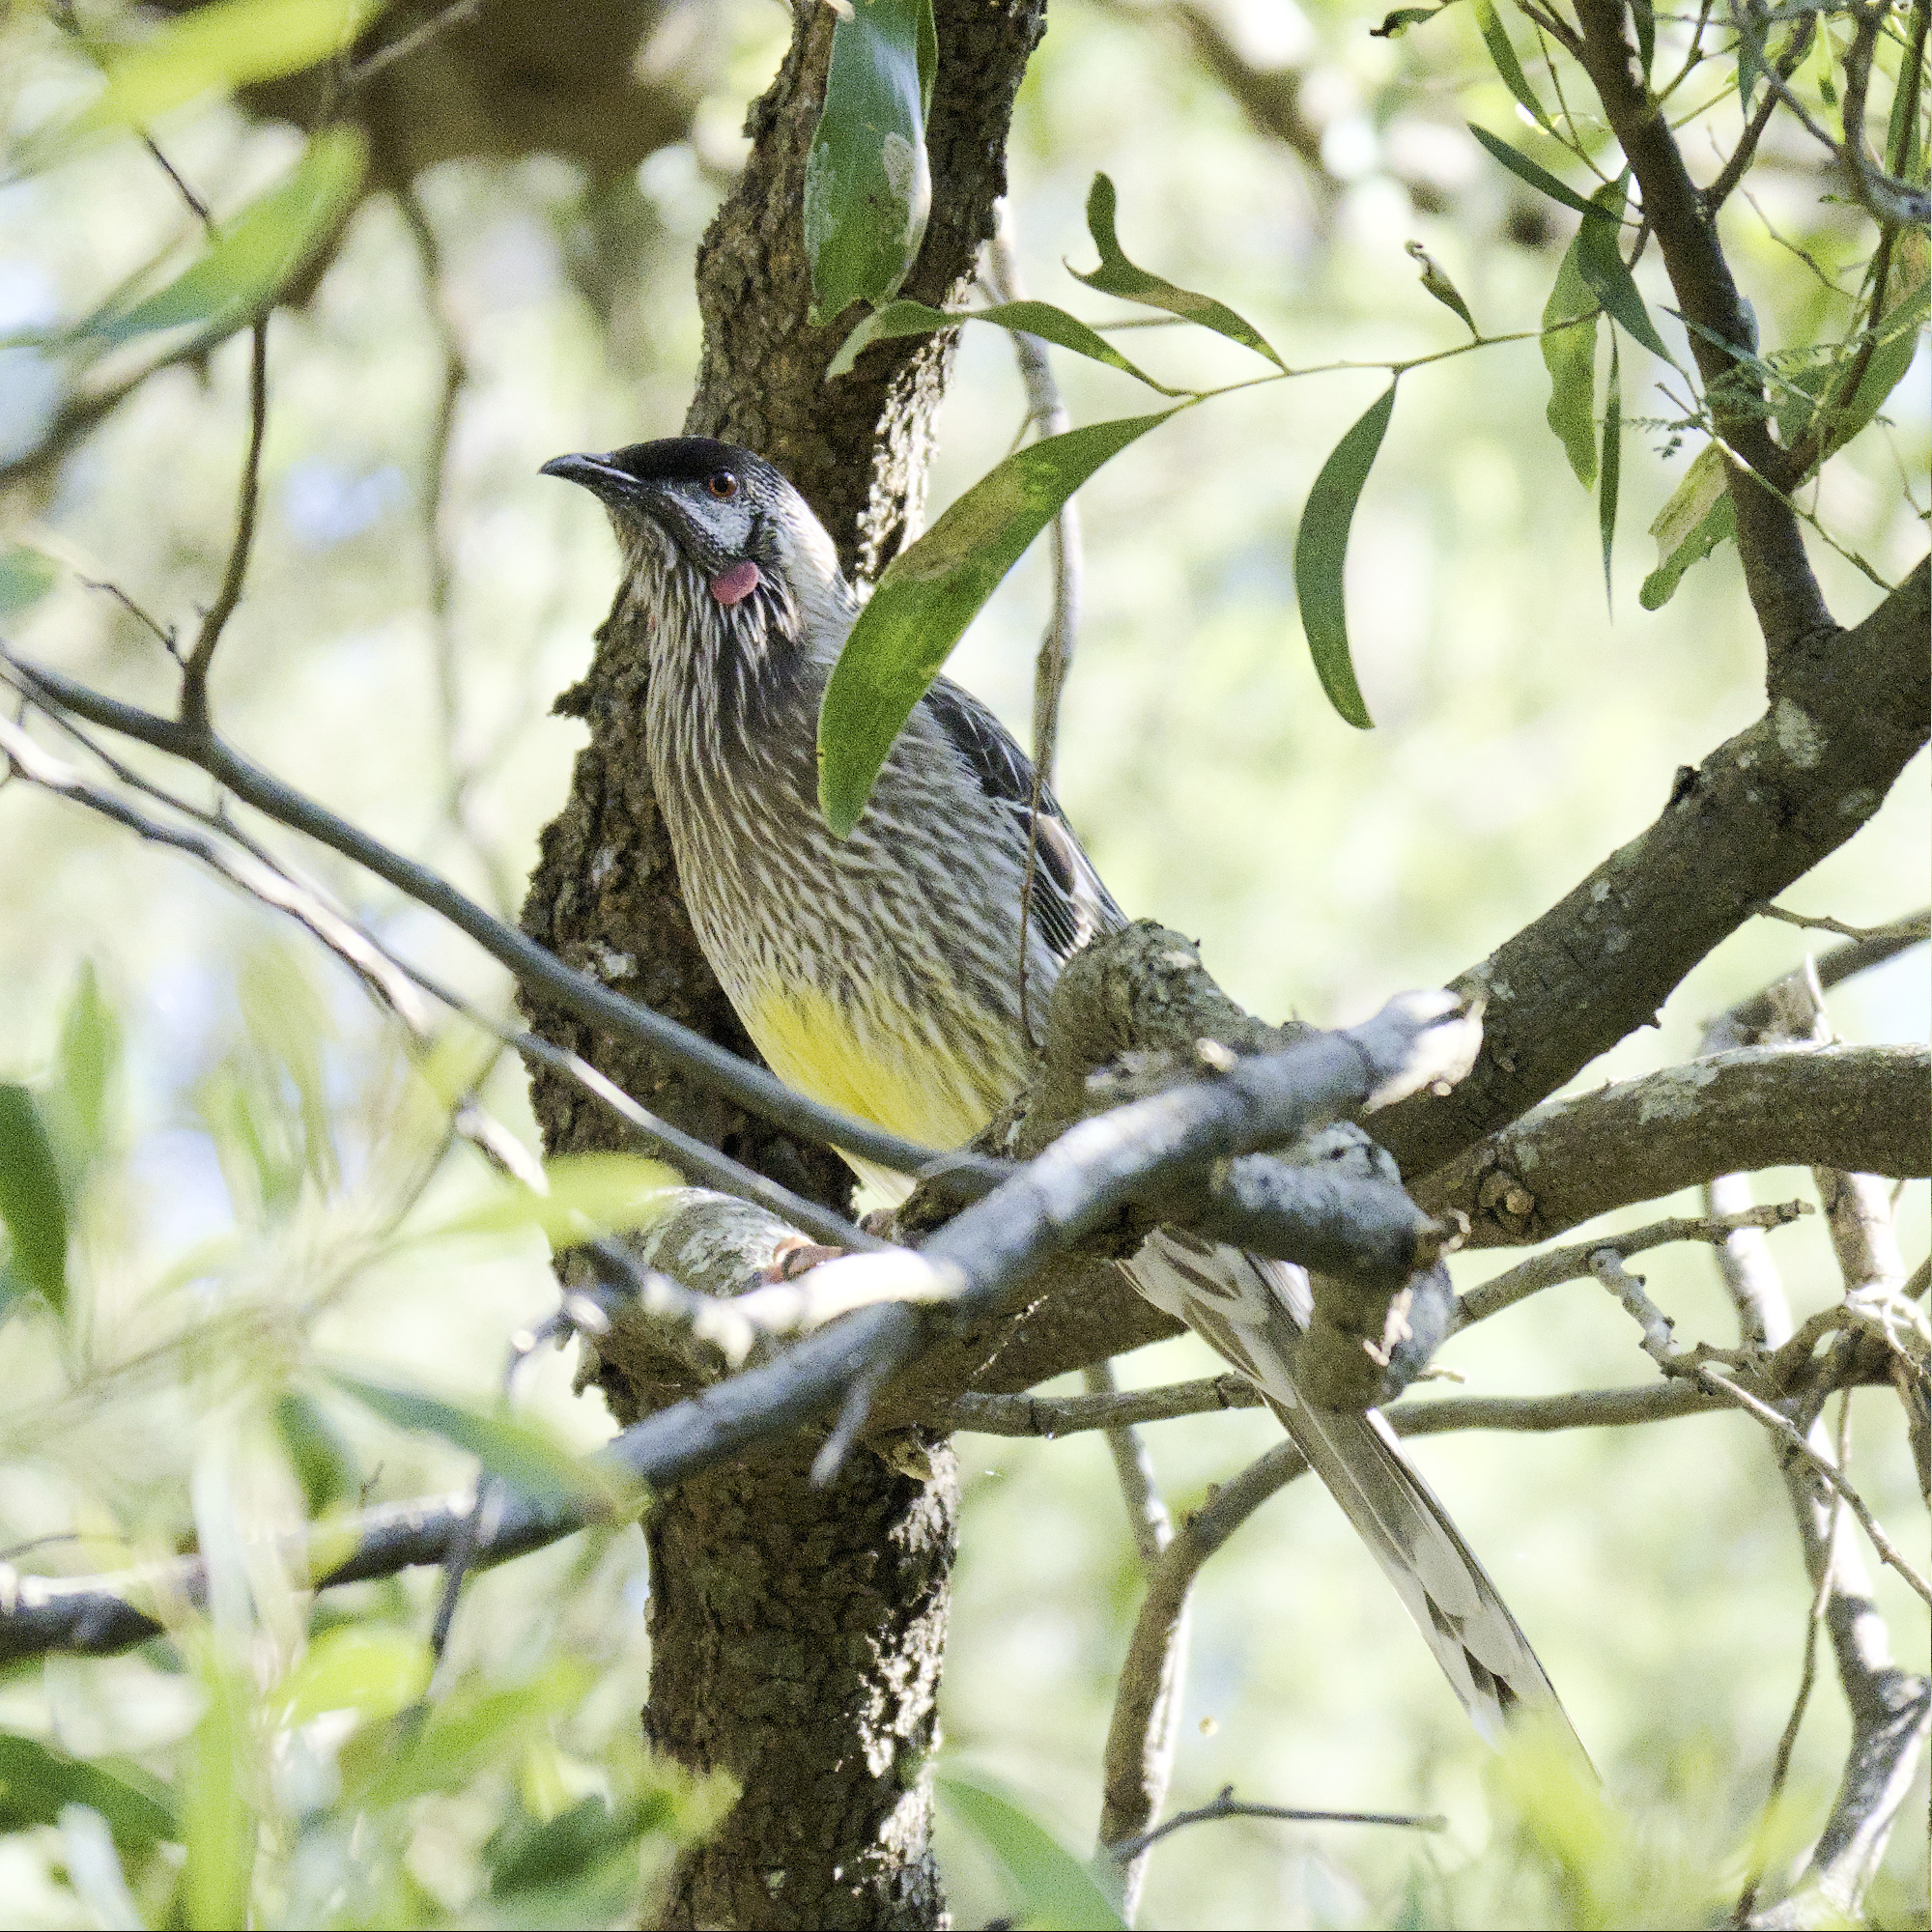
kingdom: Animalia
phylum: Chordata
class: Aves
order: Passeriformes
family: Meliphagidae
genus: Anthochaera
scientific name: Anthochaera carunculata
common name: Red wattlebird
